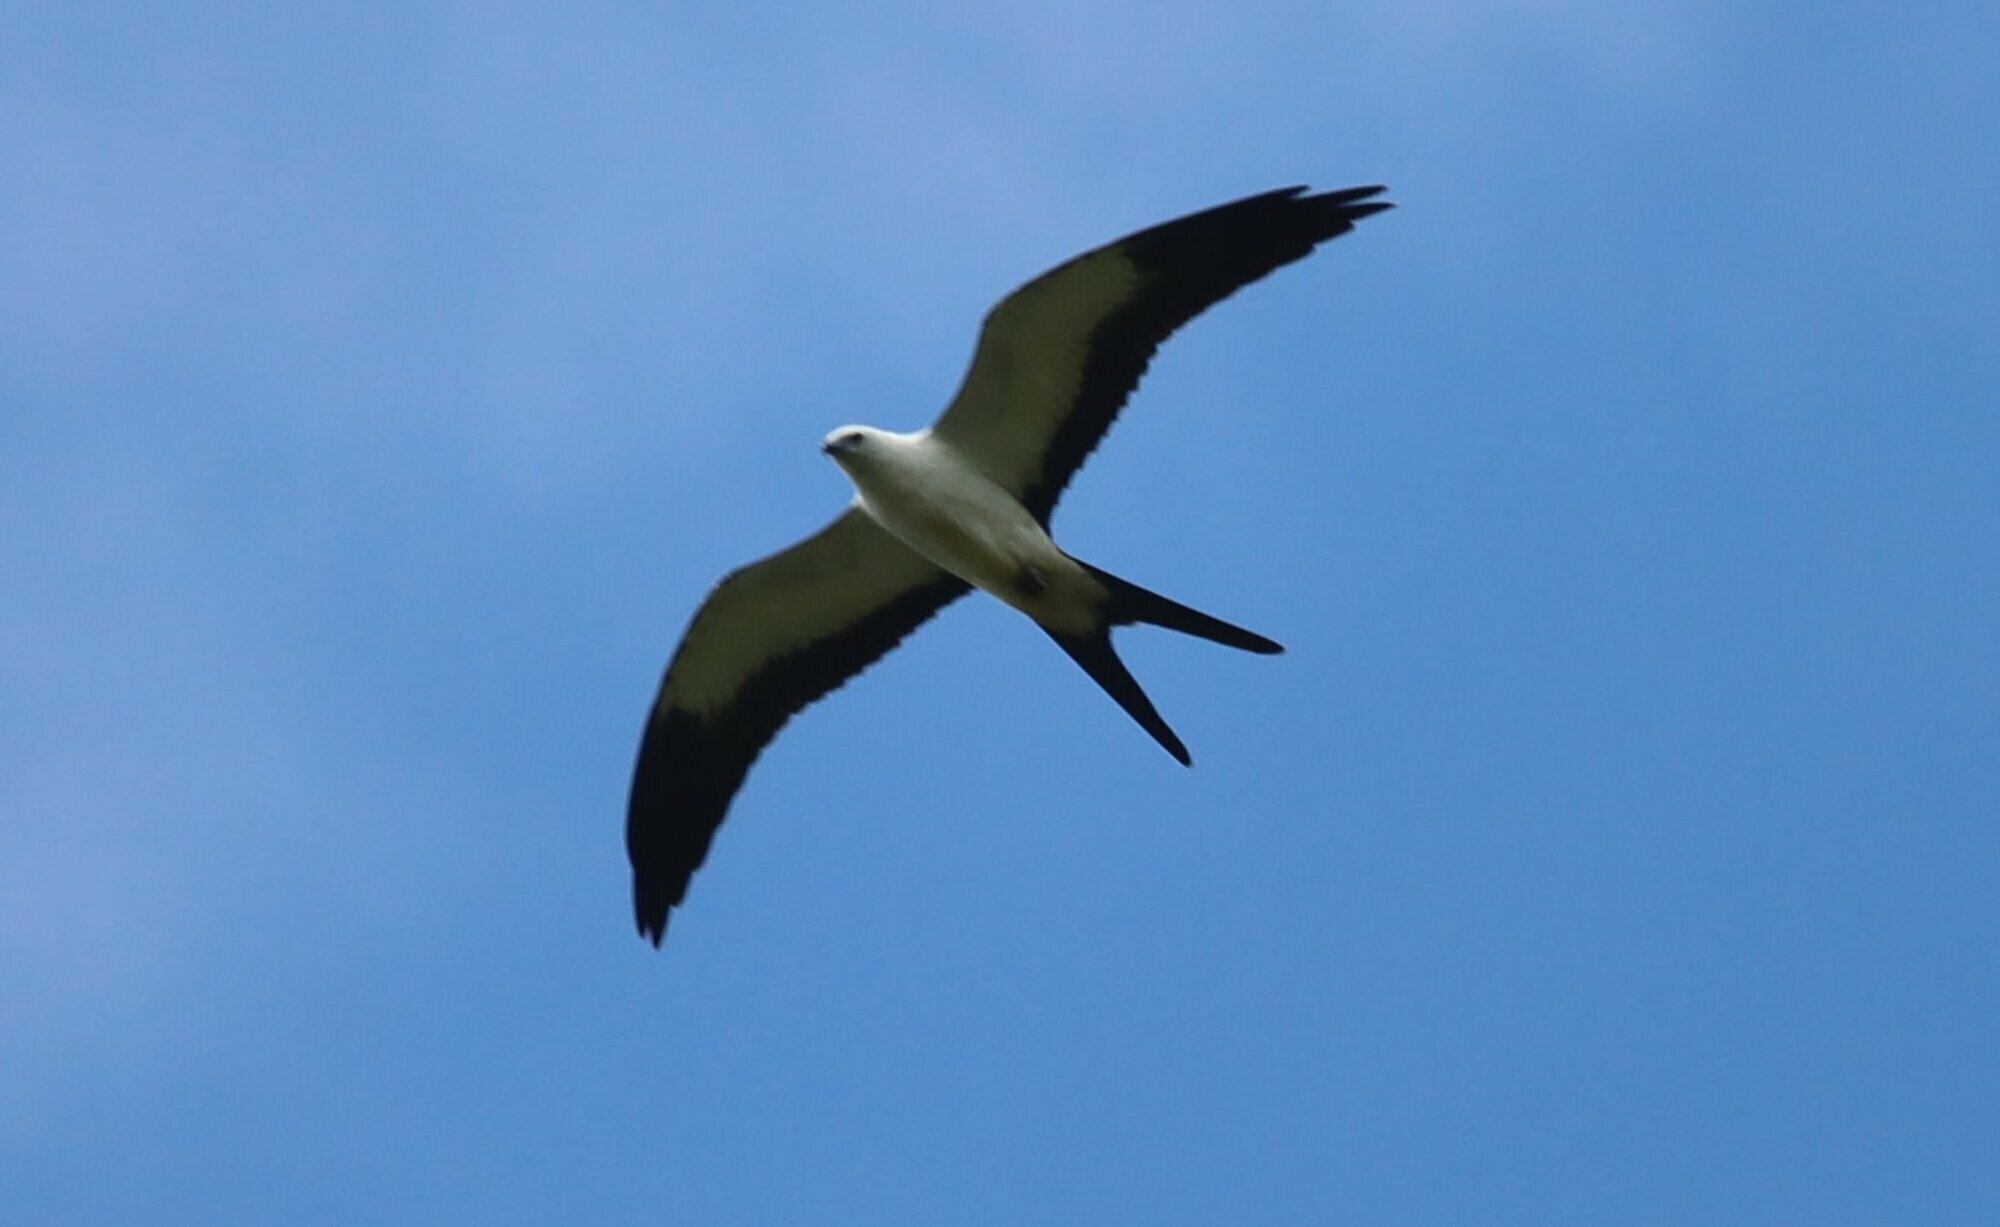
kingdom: Animalia
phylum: Chordata
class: Aves
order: Accipitriformes
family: Accipitridae
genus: Elanoides
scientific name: Elanoides forficatus
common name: Swallow-tailed kite
